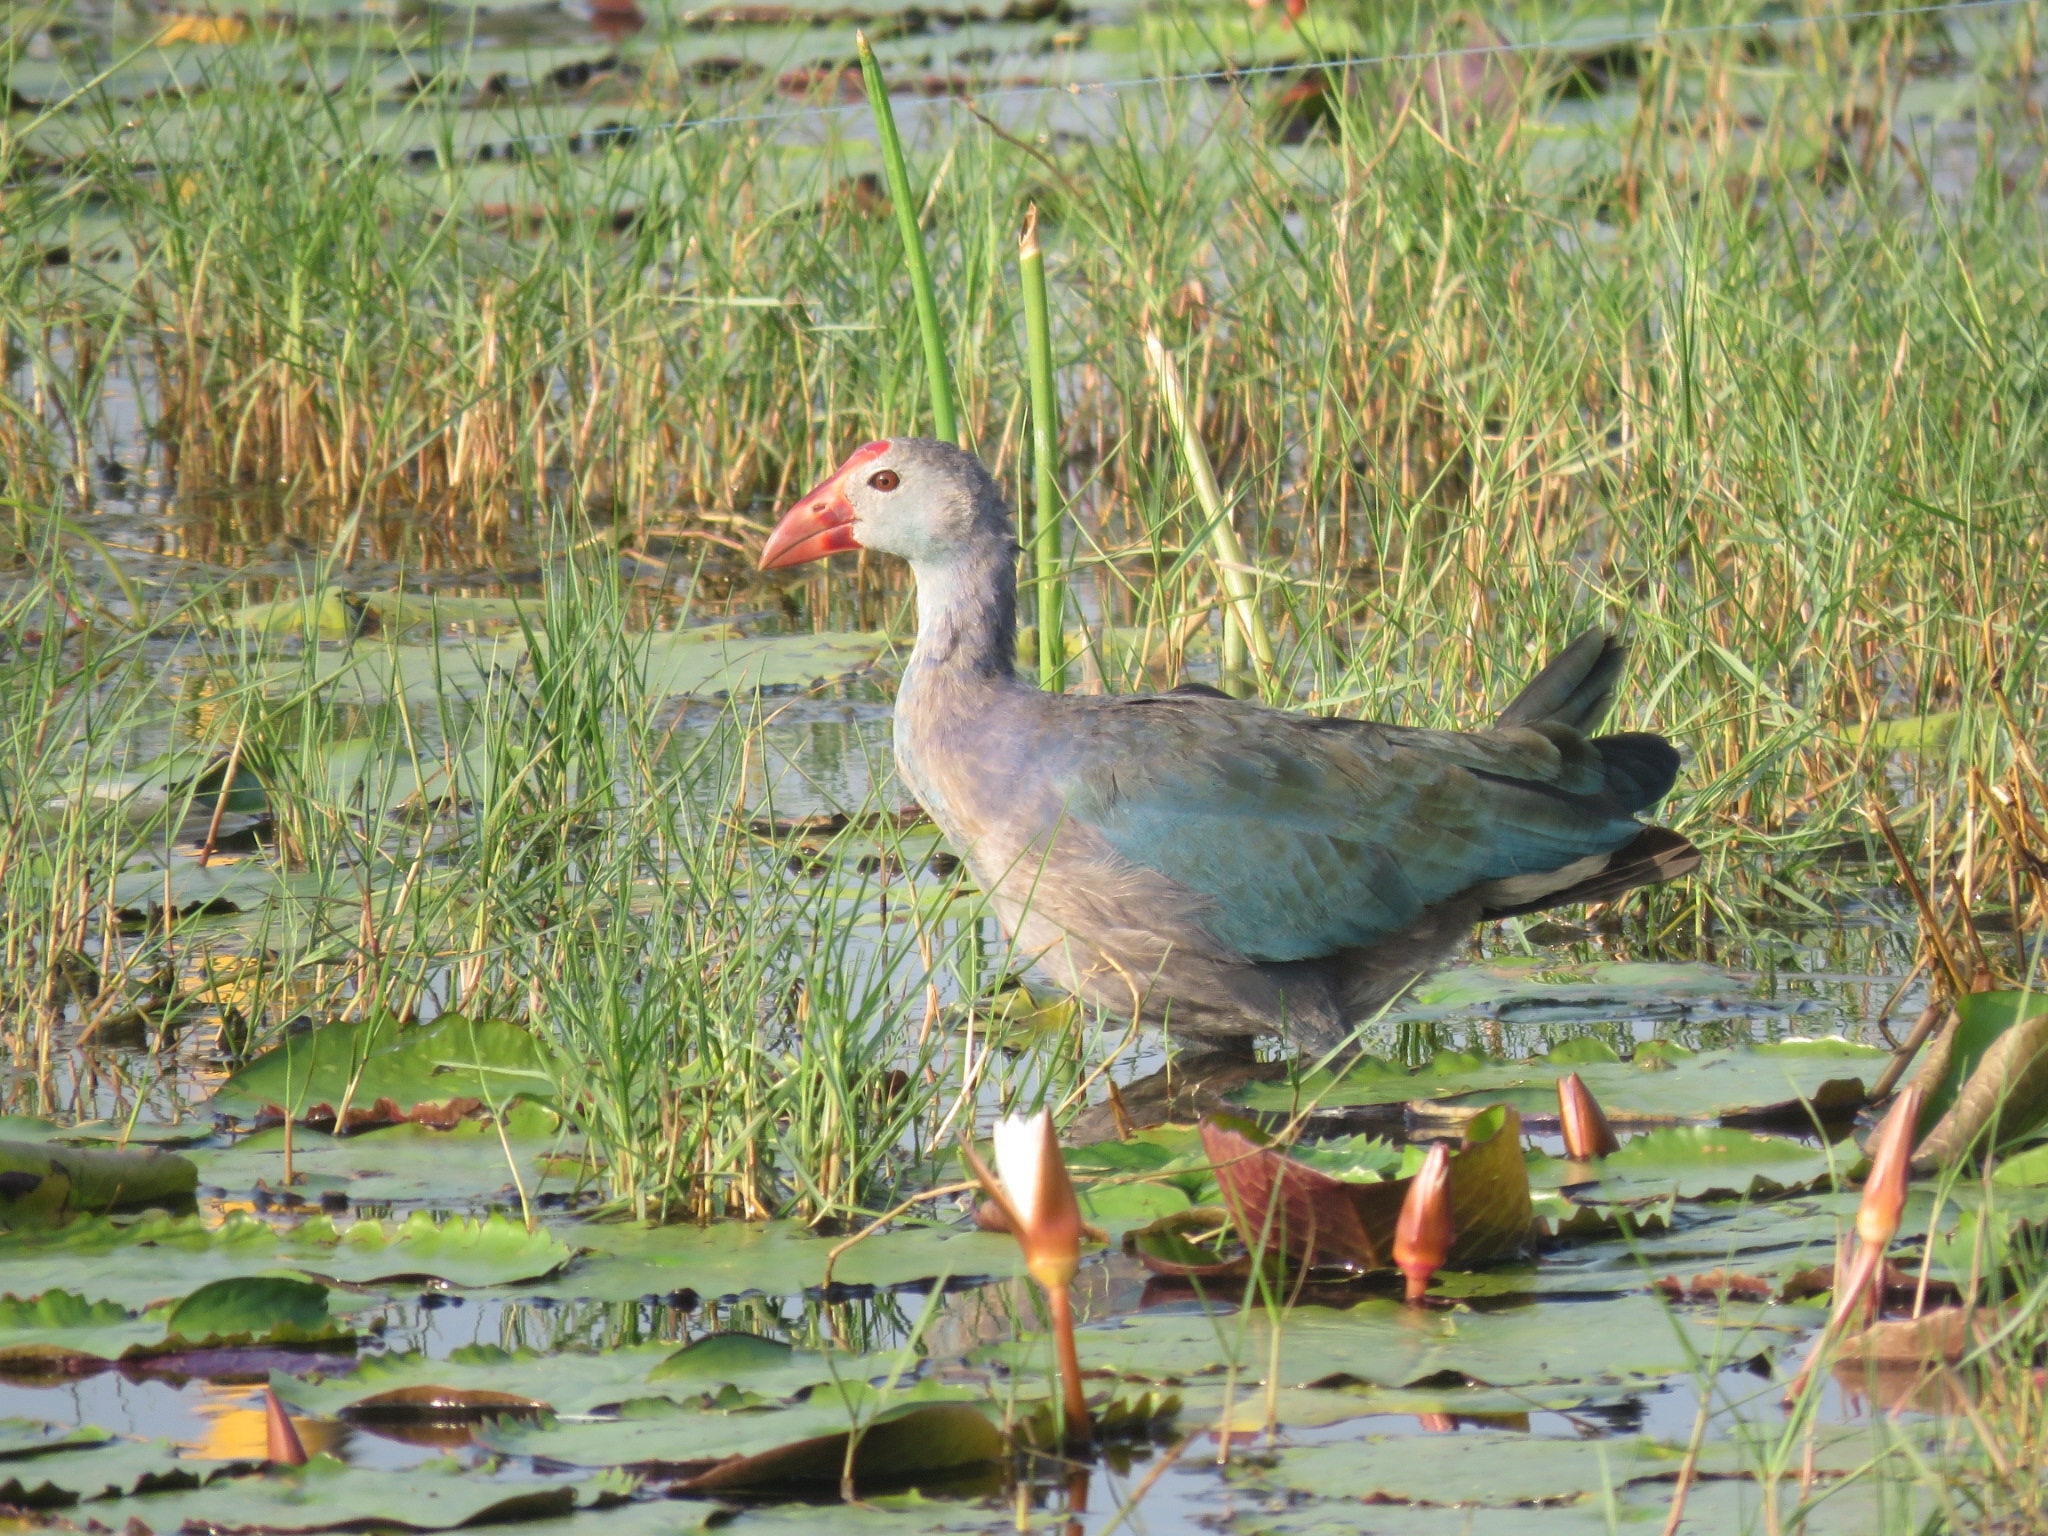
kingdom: Animalia
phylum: Chordata
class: Aves
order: Gruiformes
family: Rallidae
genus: Porphyrio
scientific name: Porphyrio porphyrio
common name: Purple swamphen
